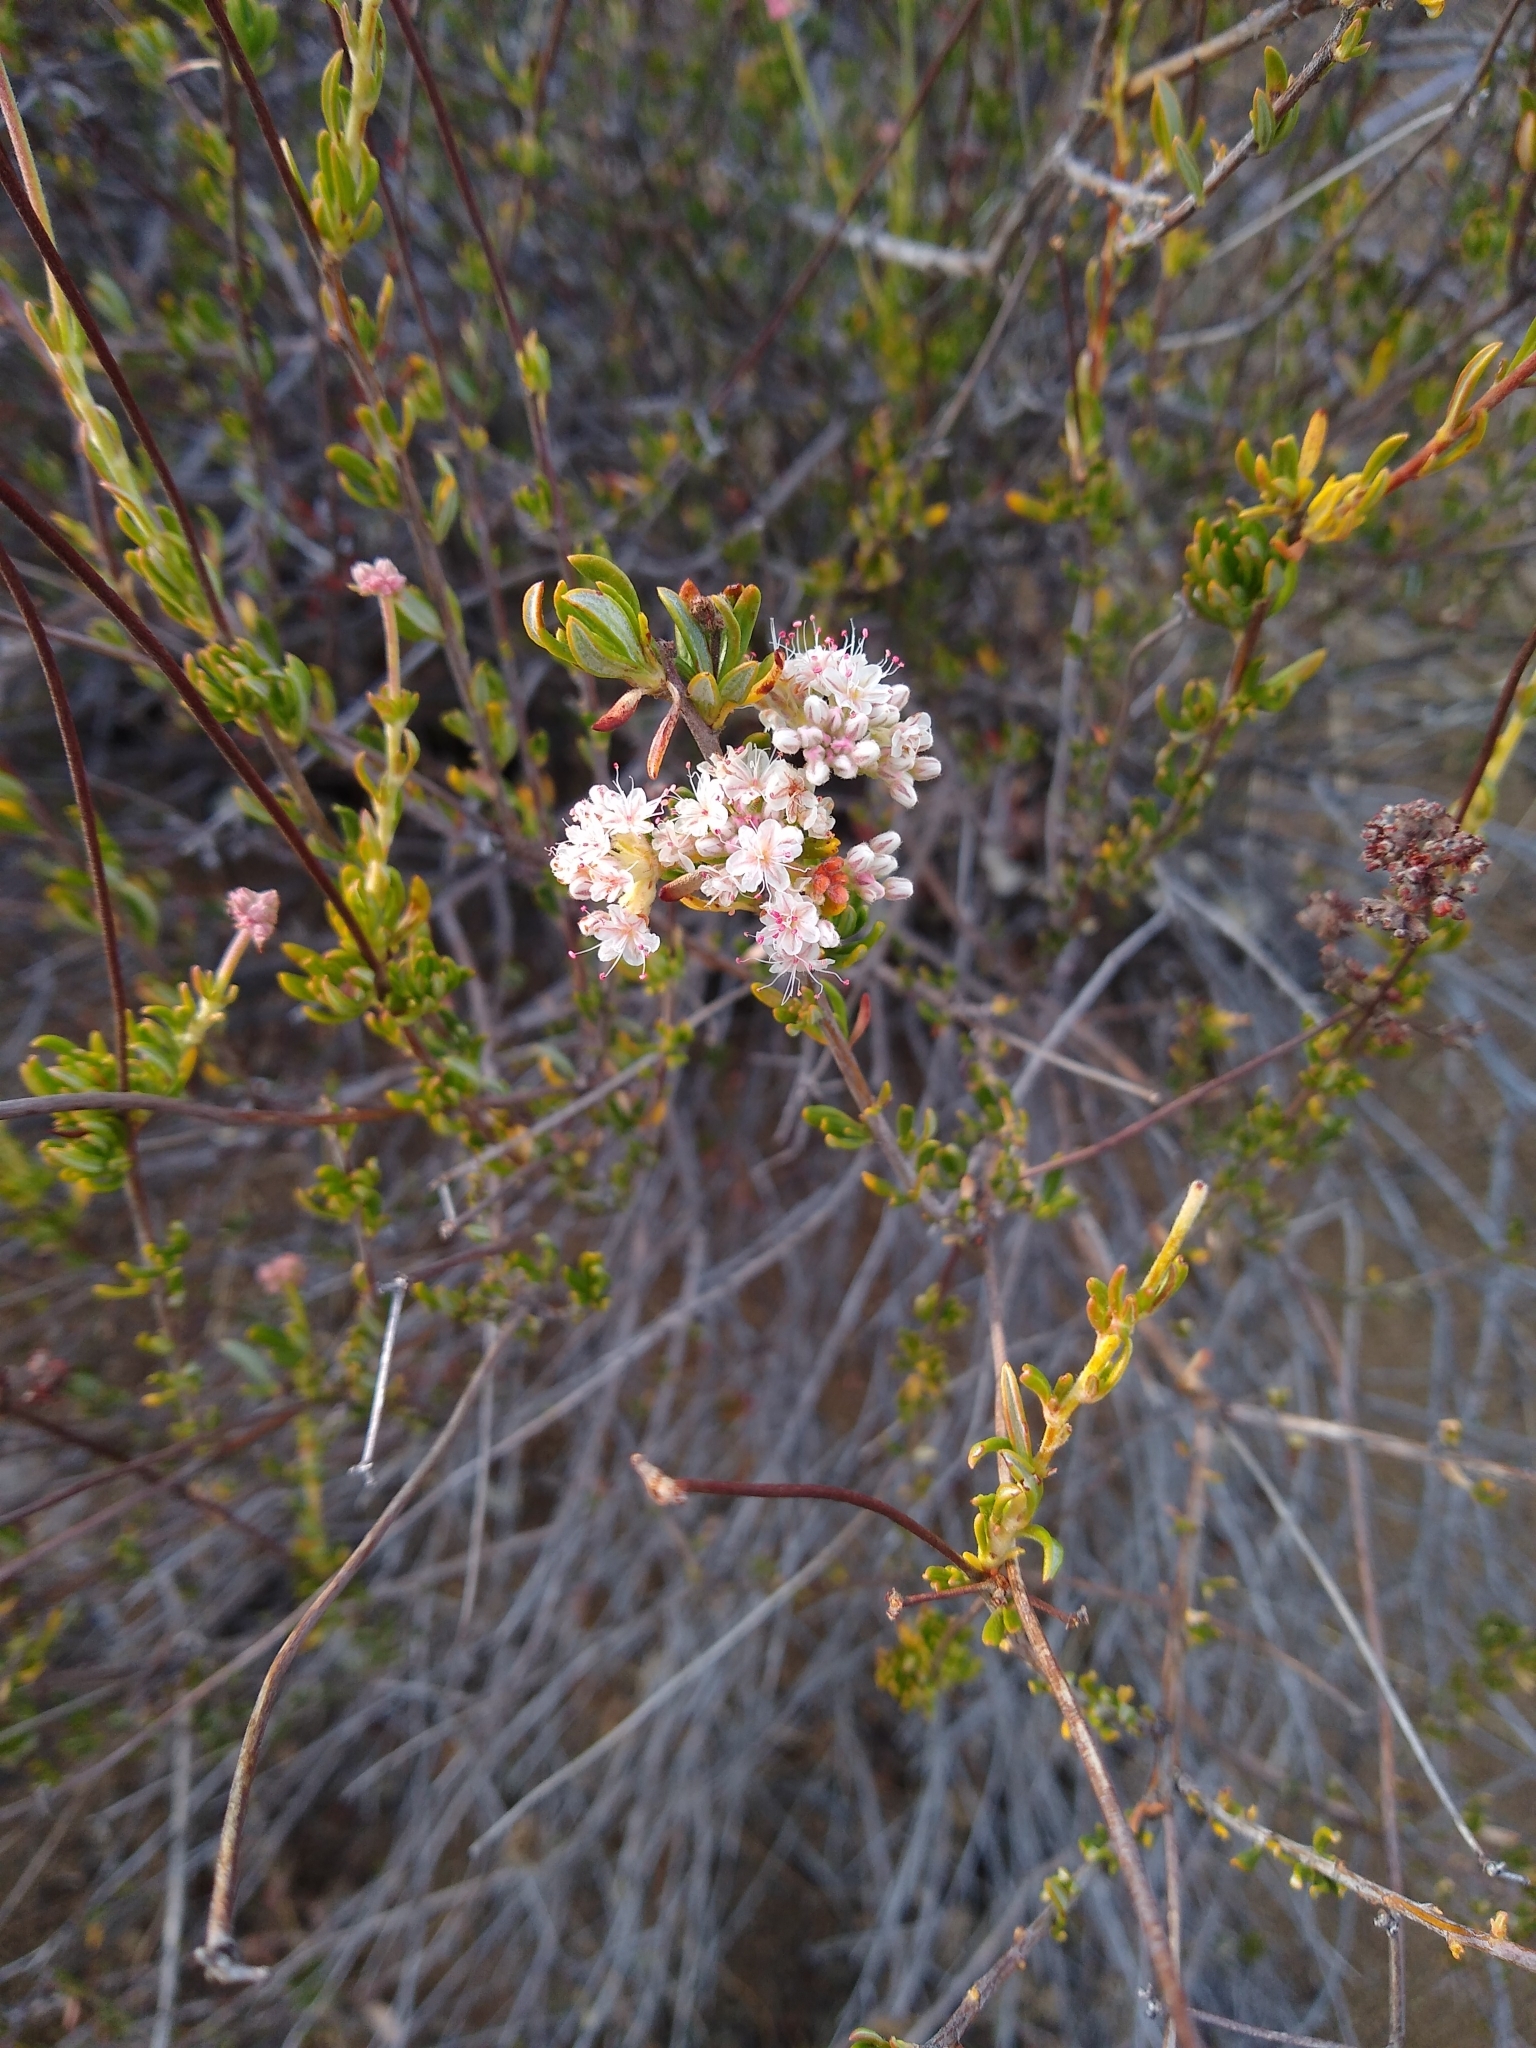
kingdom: Plantae
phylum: Tracheophyta
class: Magnoliopsida
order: Caryophyllales
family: Polygonaceae
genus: Eriogonum
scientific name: Eriogonum fasciculatum
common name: California wild buckwheat
